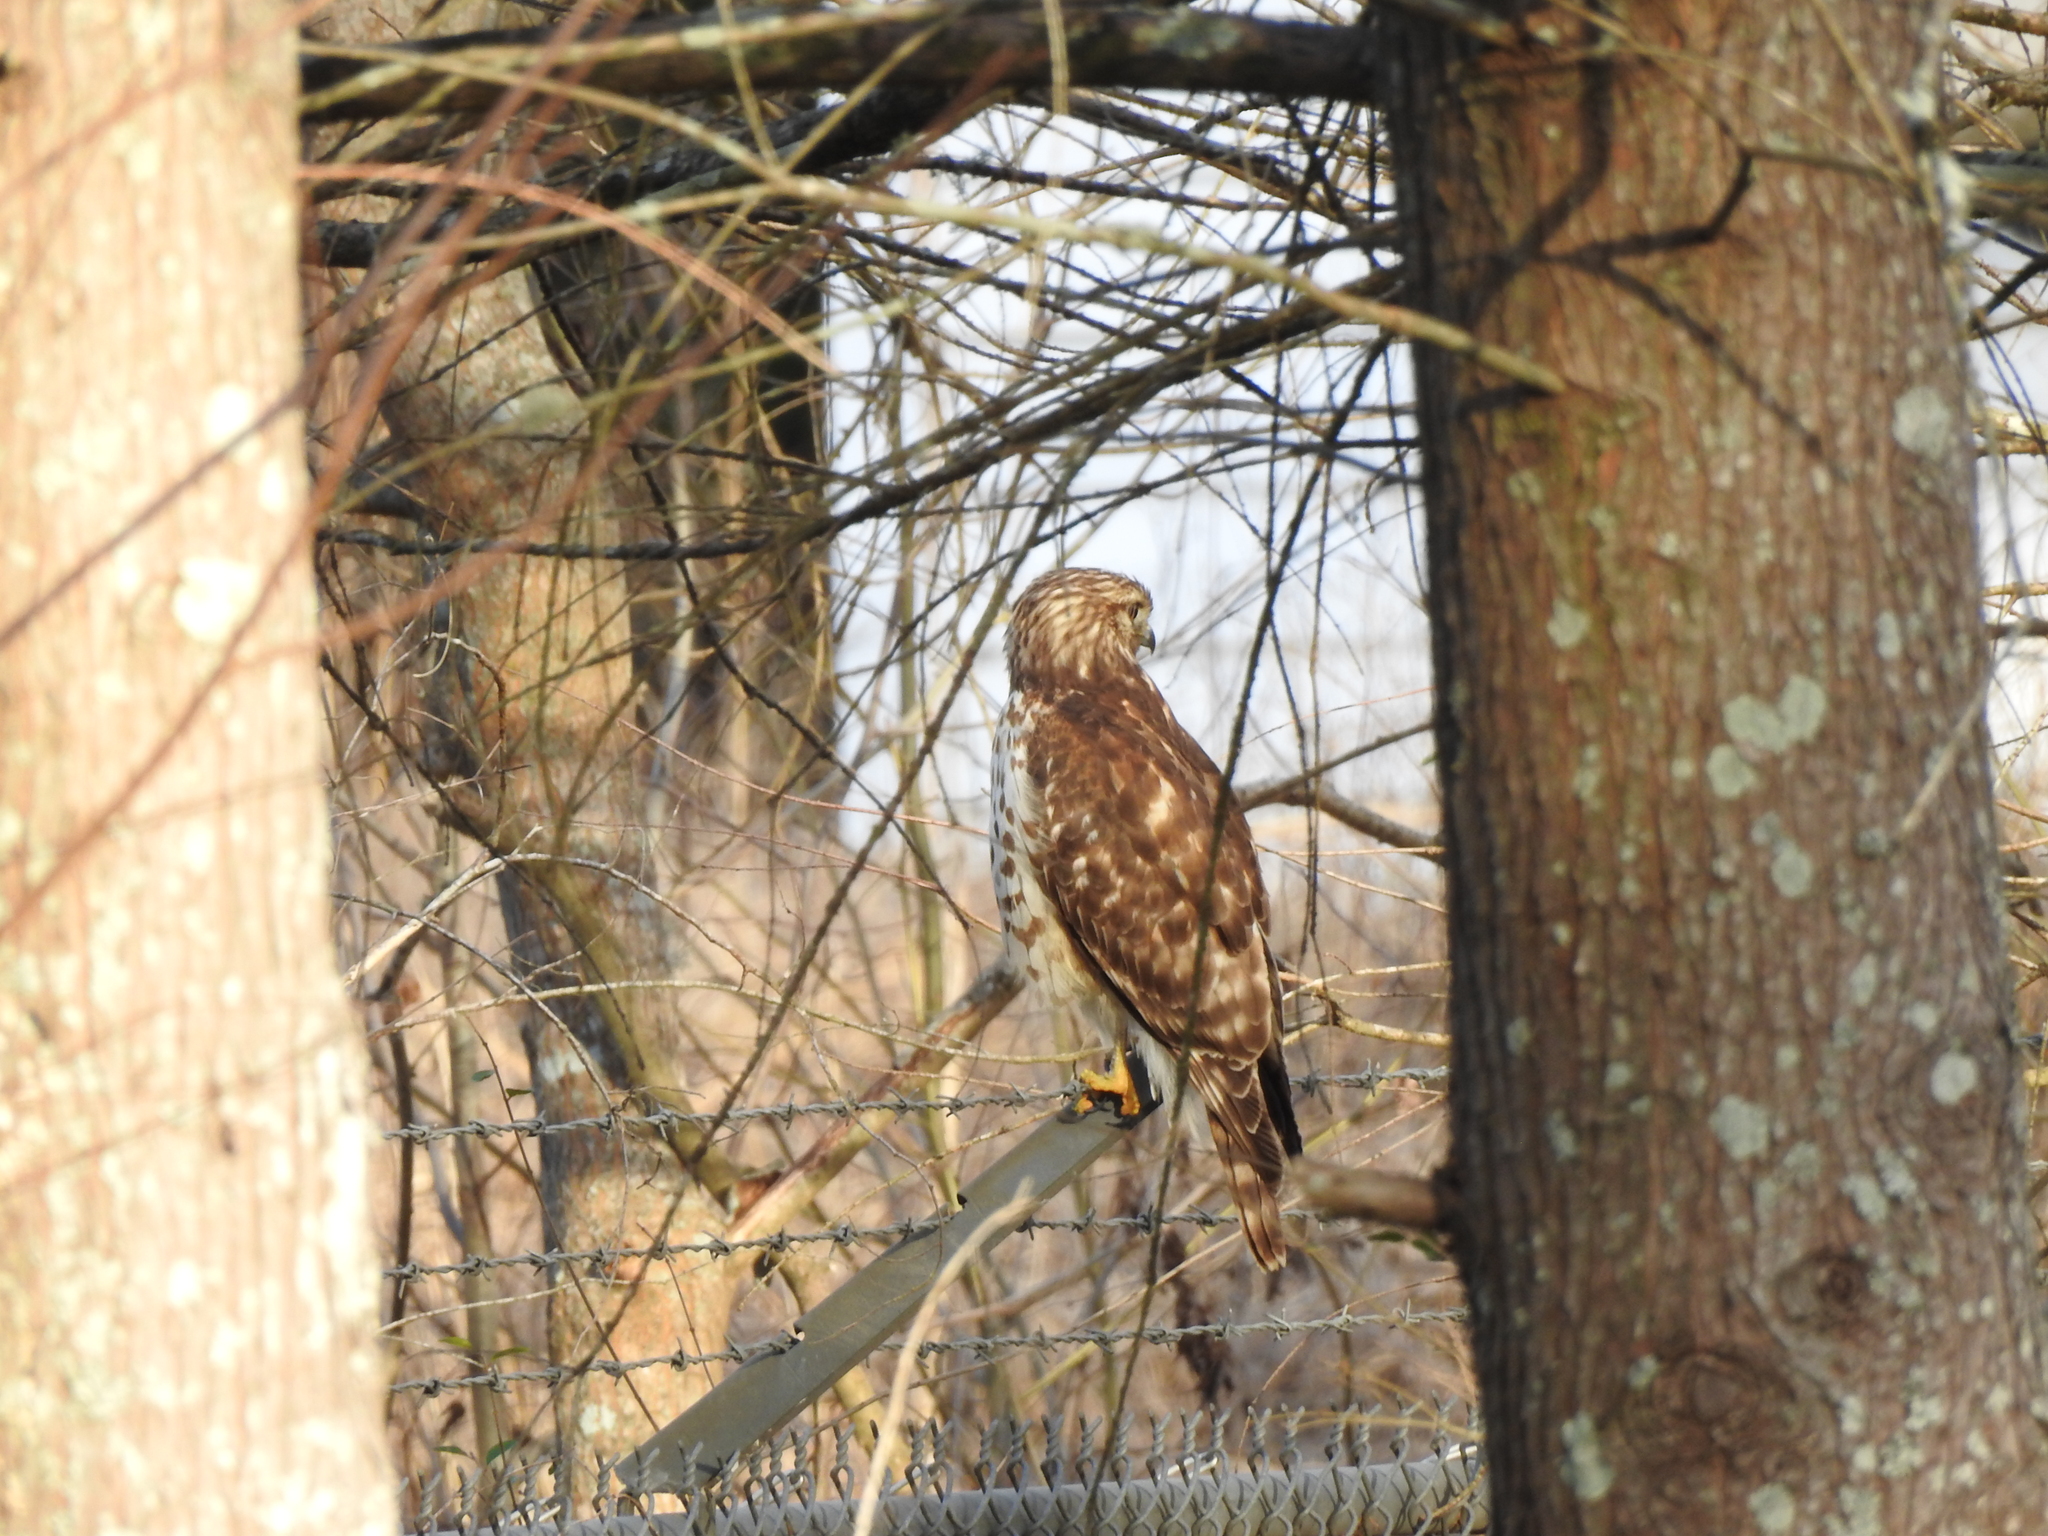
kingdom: Animalia
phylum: Chordata
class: Aves
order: Accipitriformes
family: Accipitridae
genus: Buteo
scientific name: Buteo lineatus
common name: Red-shouldered hawk
